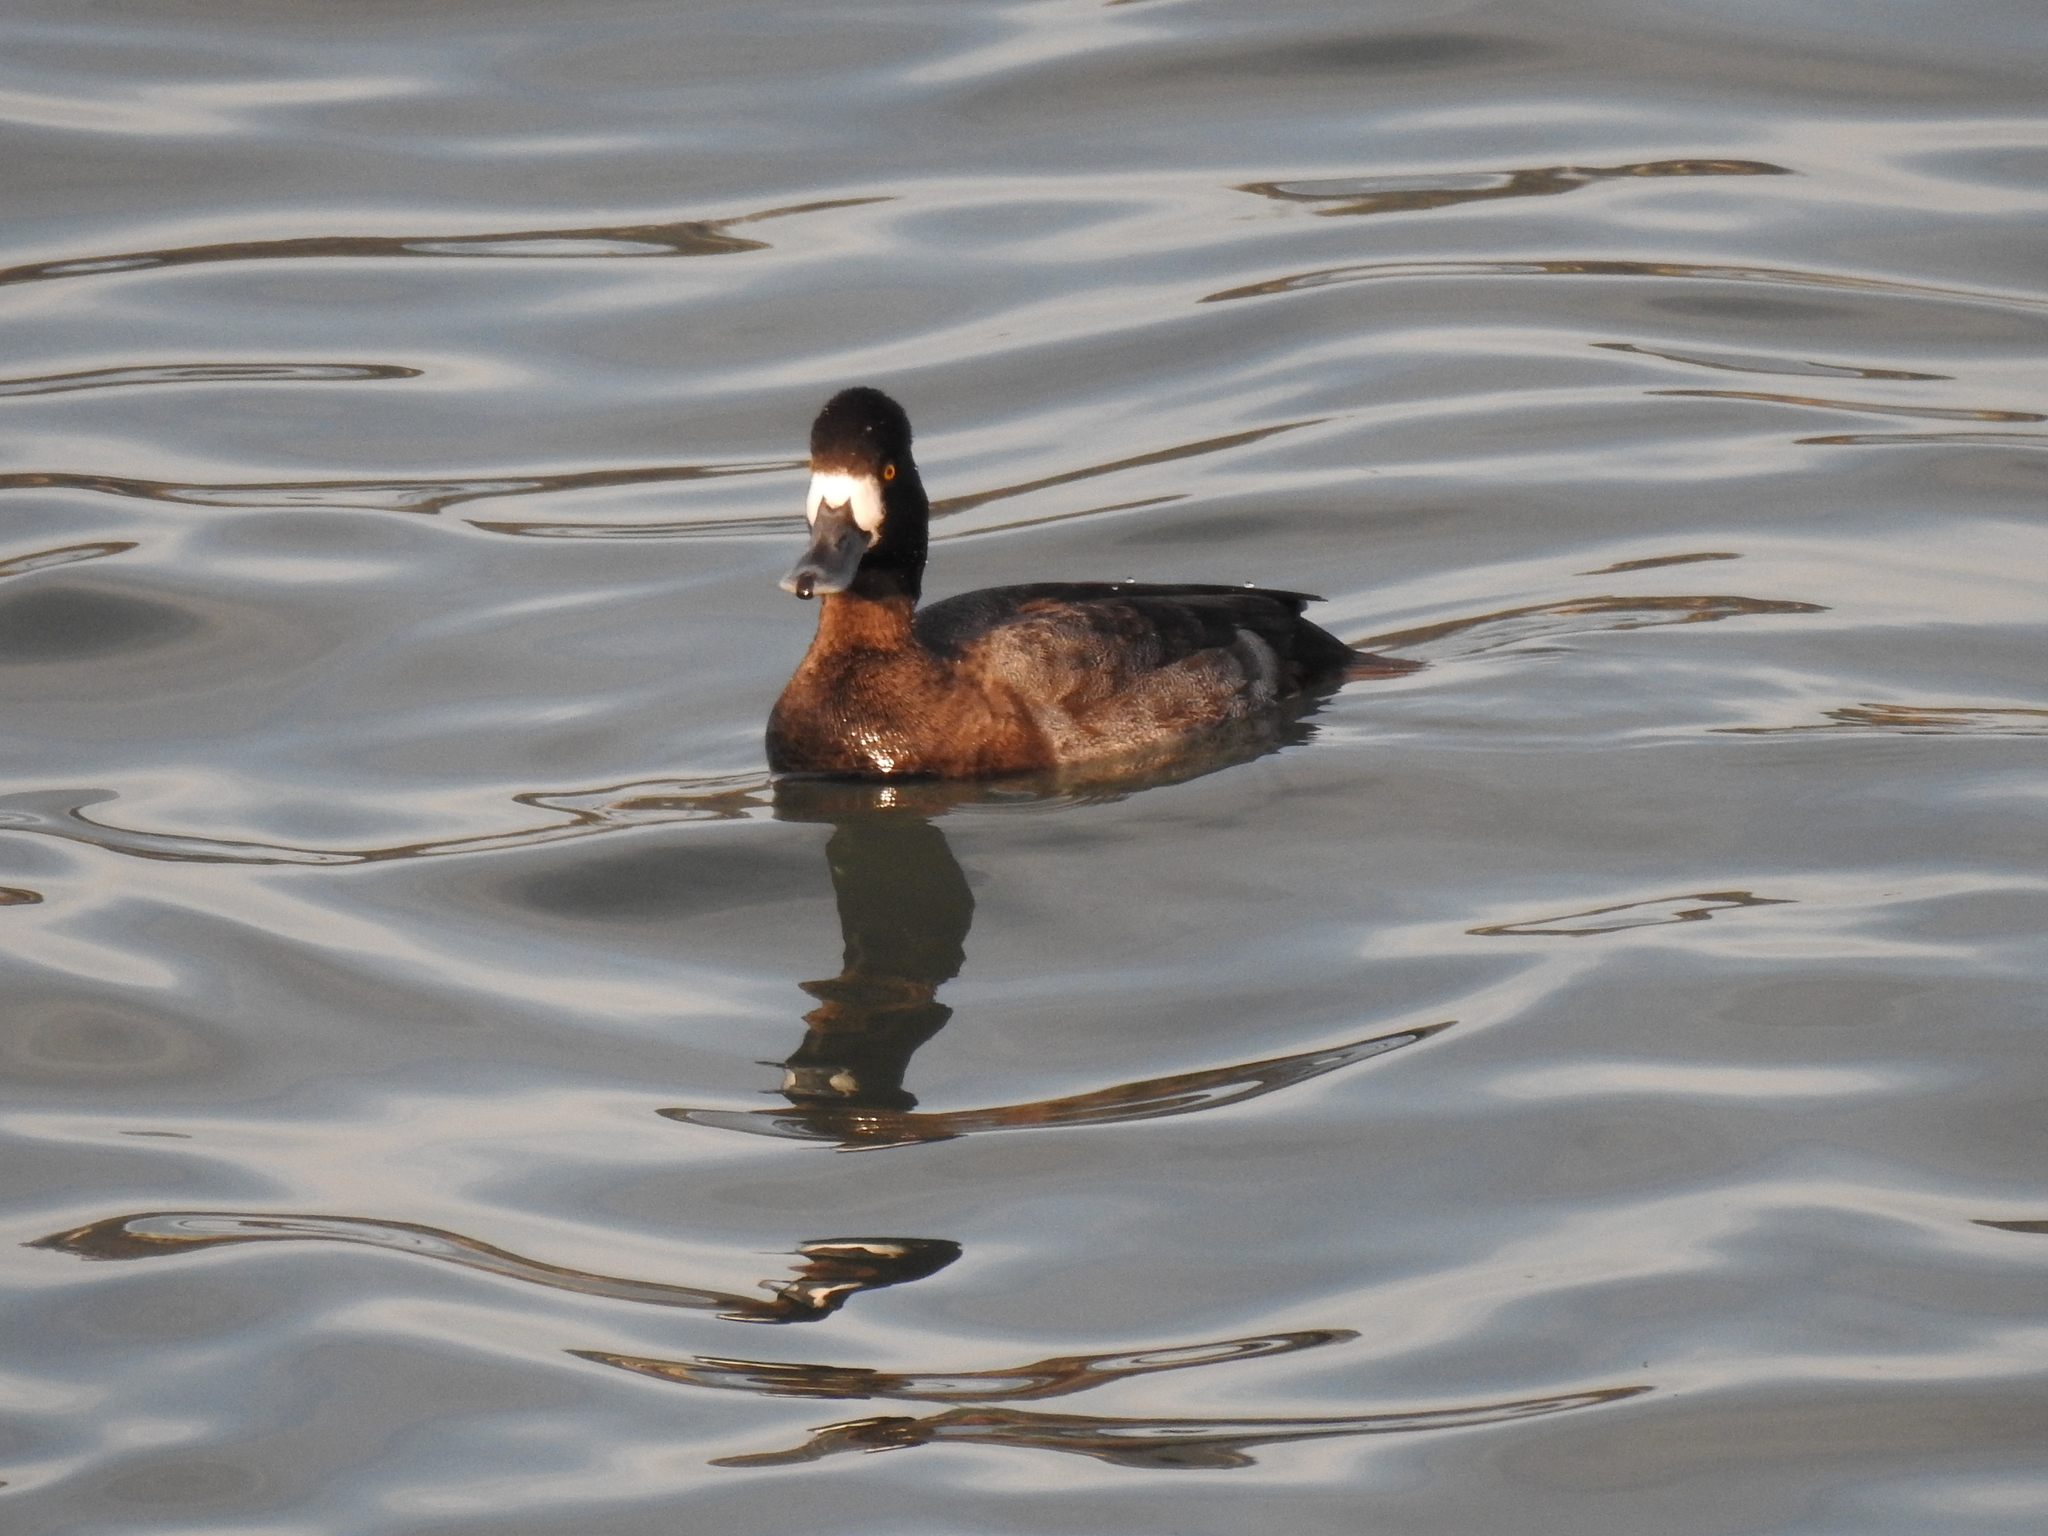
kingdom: Animalia
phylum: Chordata
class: Aves
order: Anseriformes
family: Anatidae
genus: Aythya
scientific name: Aythya marila
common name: Greater scaup
